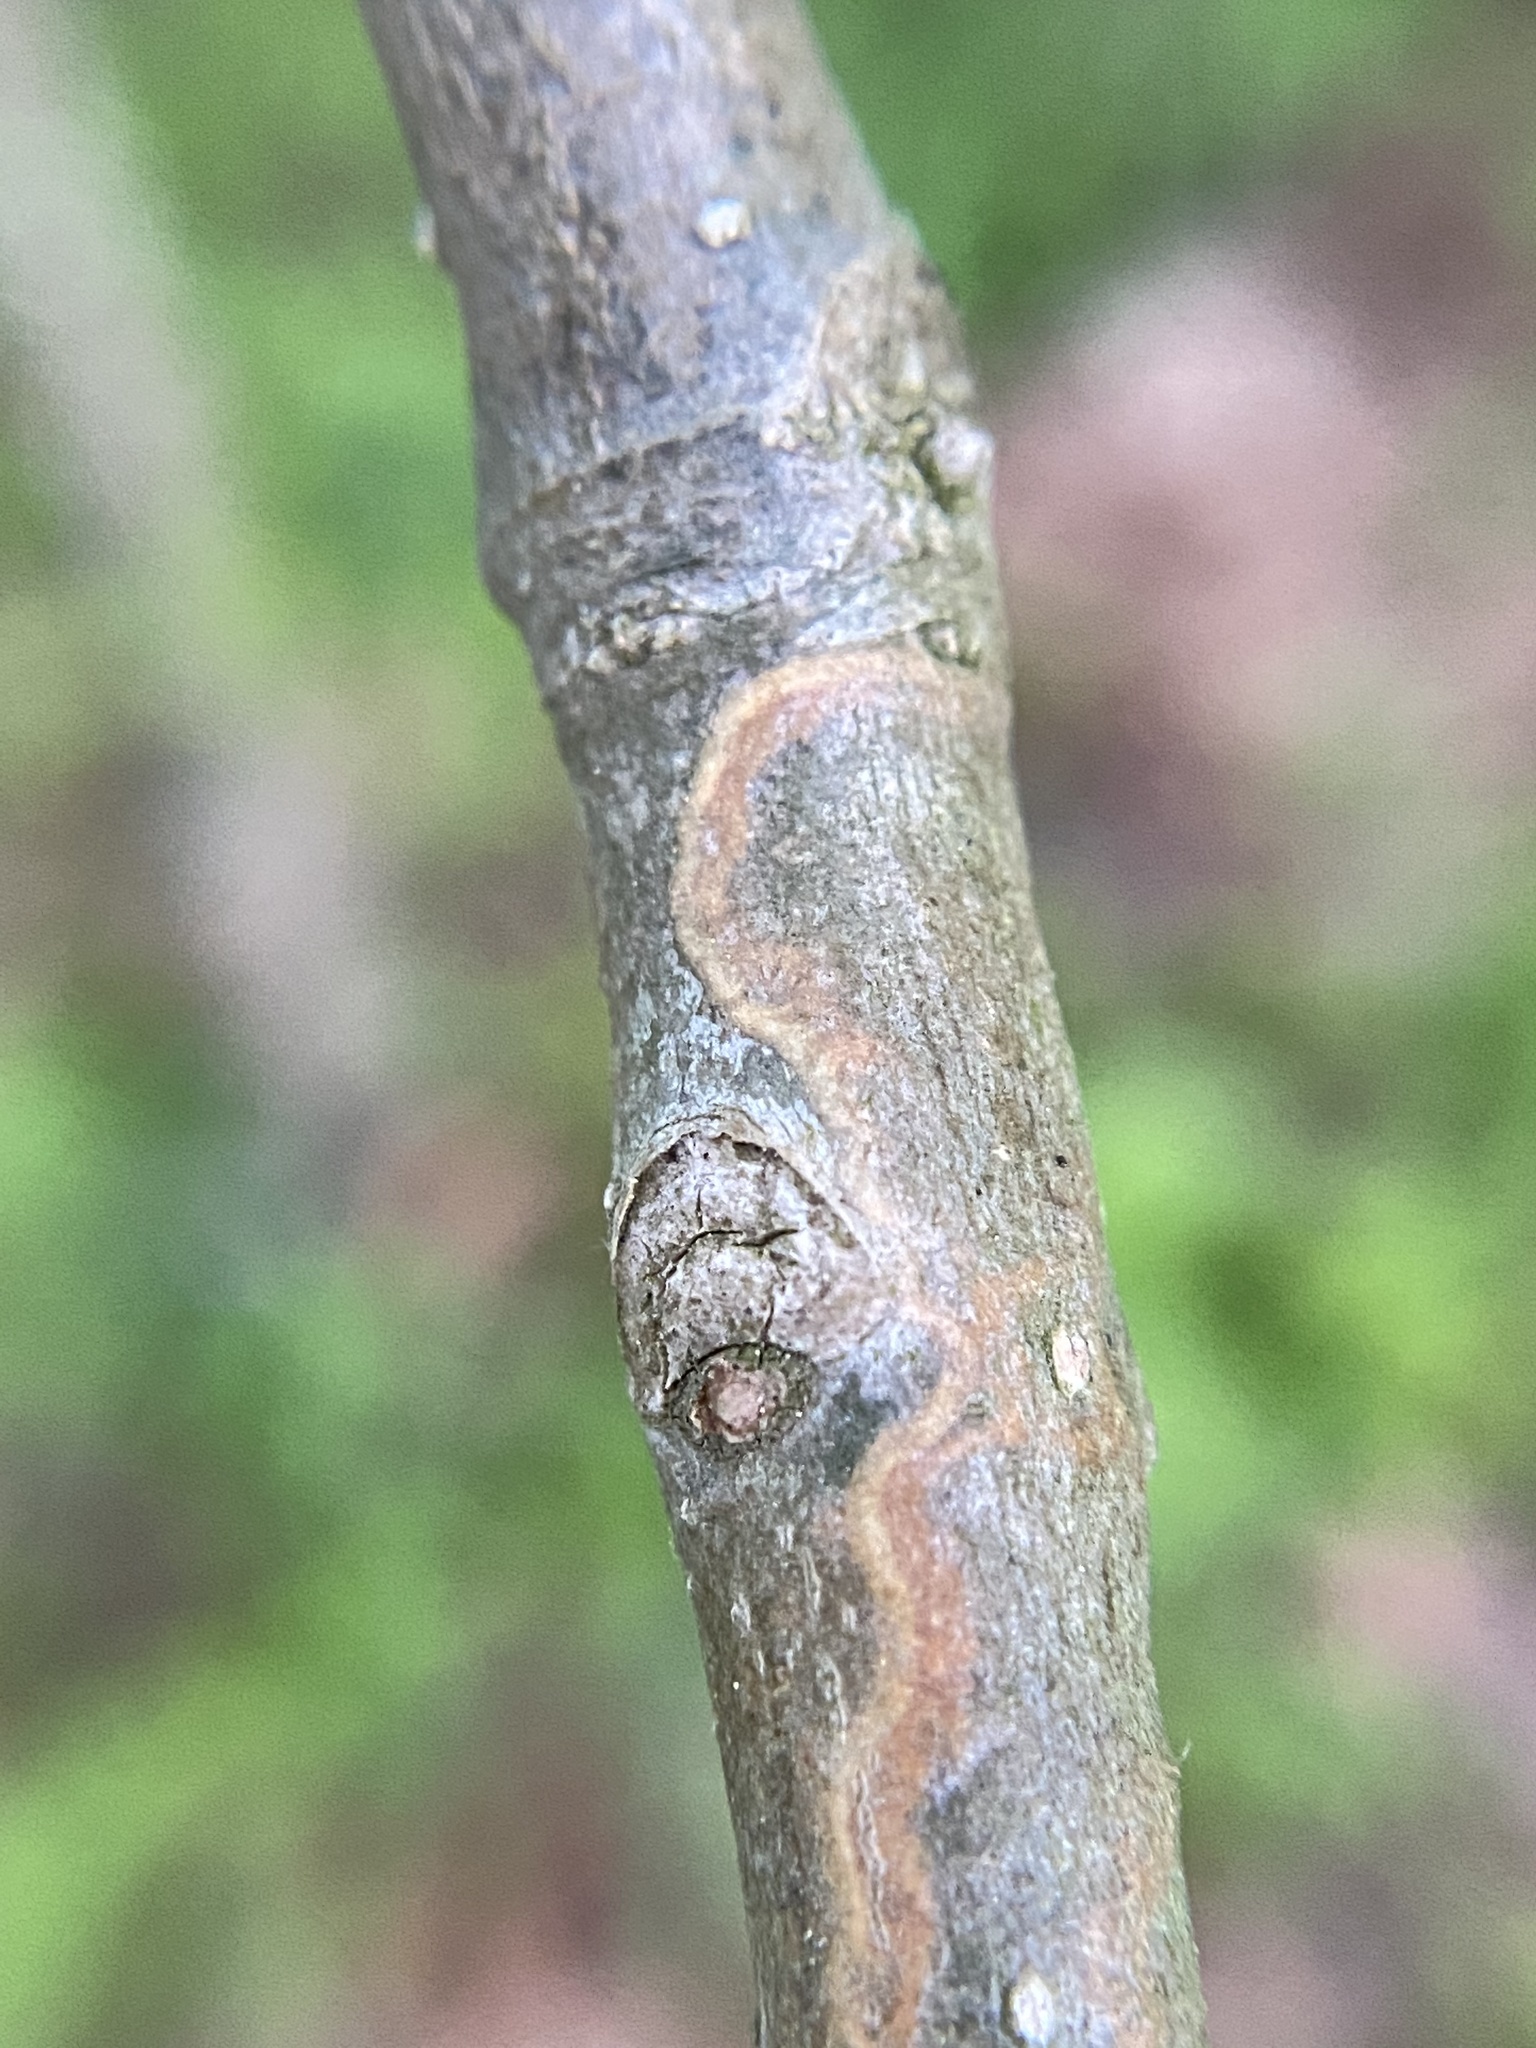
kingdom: Animalia
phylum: Arthropoda
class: Insecta
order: Lepidoptera
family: Gracillariidae
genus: Marmara
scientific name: Marmara fraxinicola
